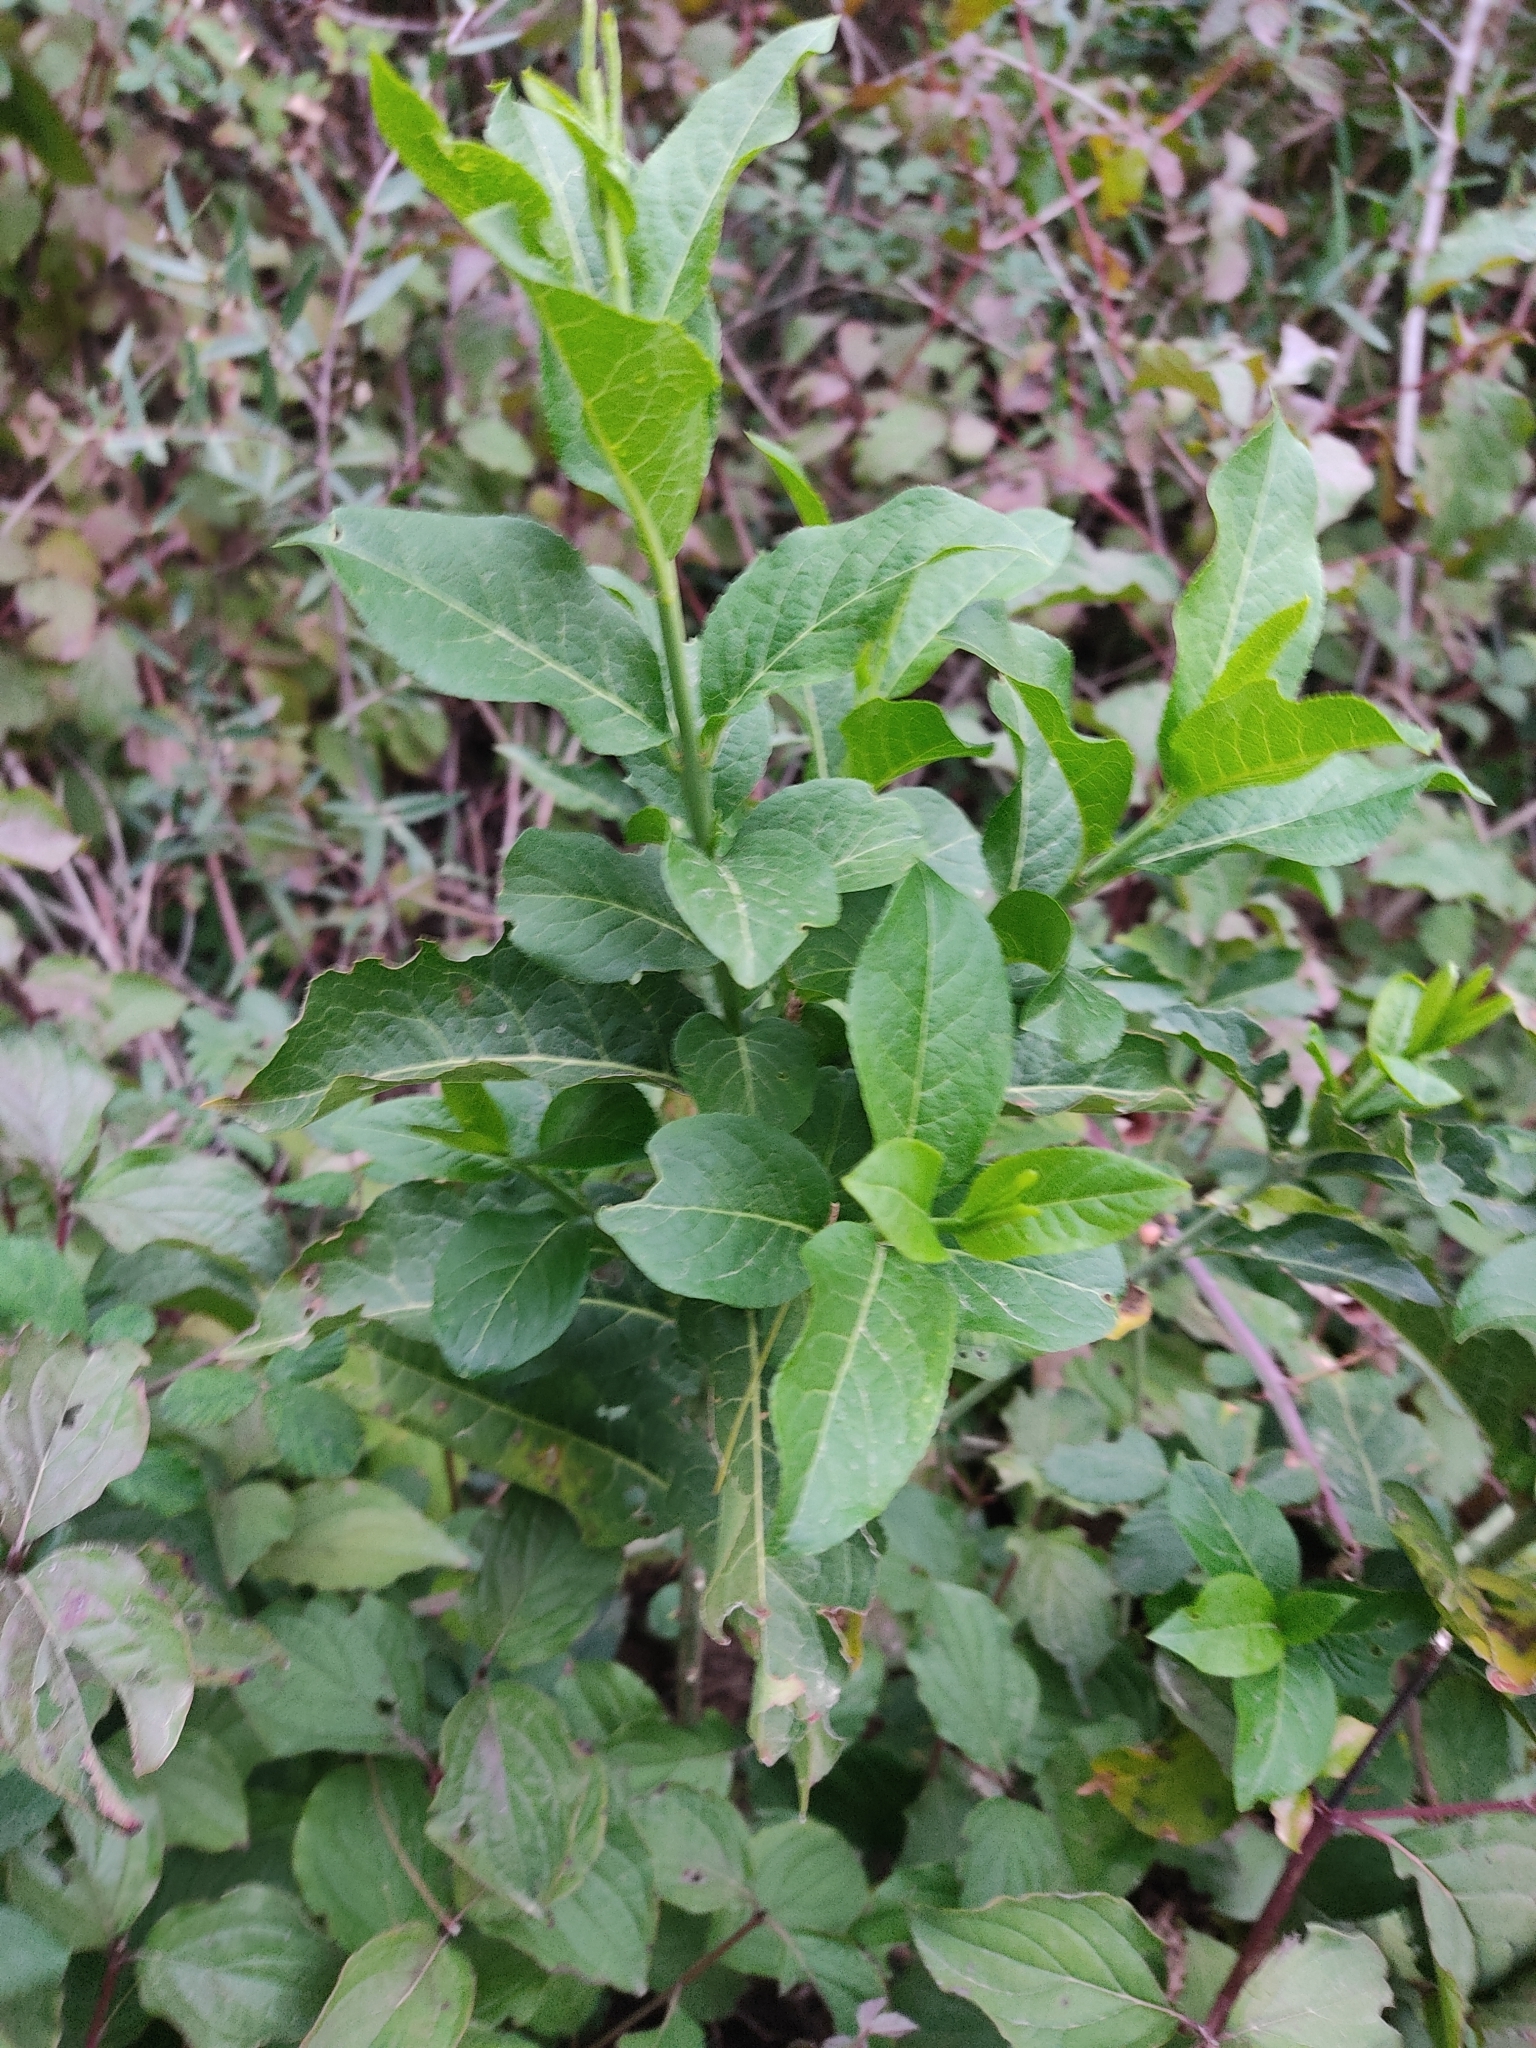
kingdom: Plantae
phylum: Tracheophyta
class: Magnoliopsida
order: Celastrales
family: Celastraceae
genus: Euonymus
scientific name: Euonymus europaeus
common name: Spindle
